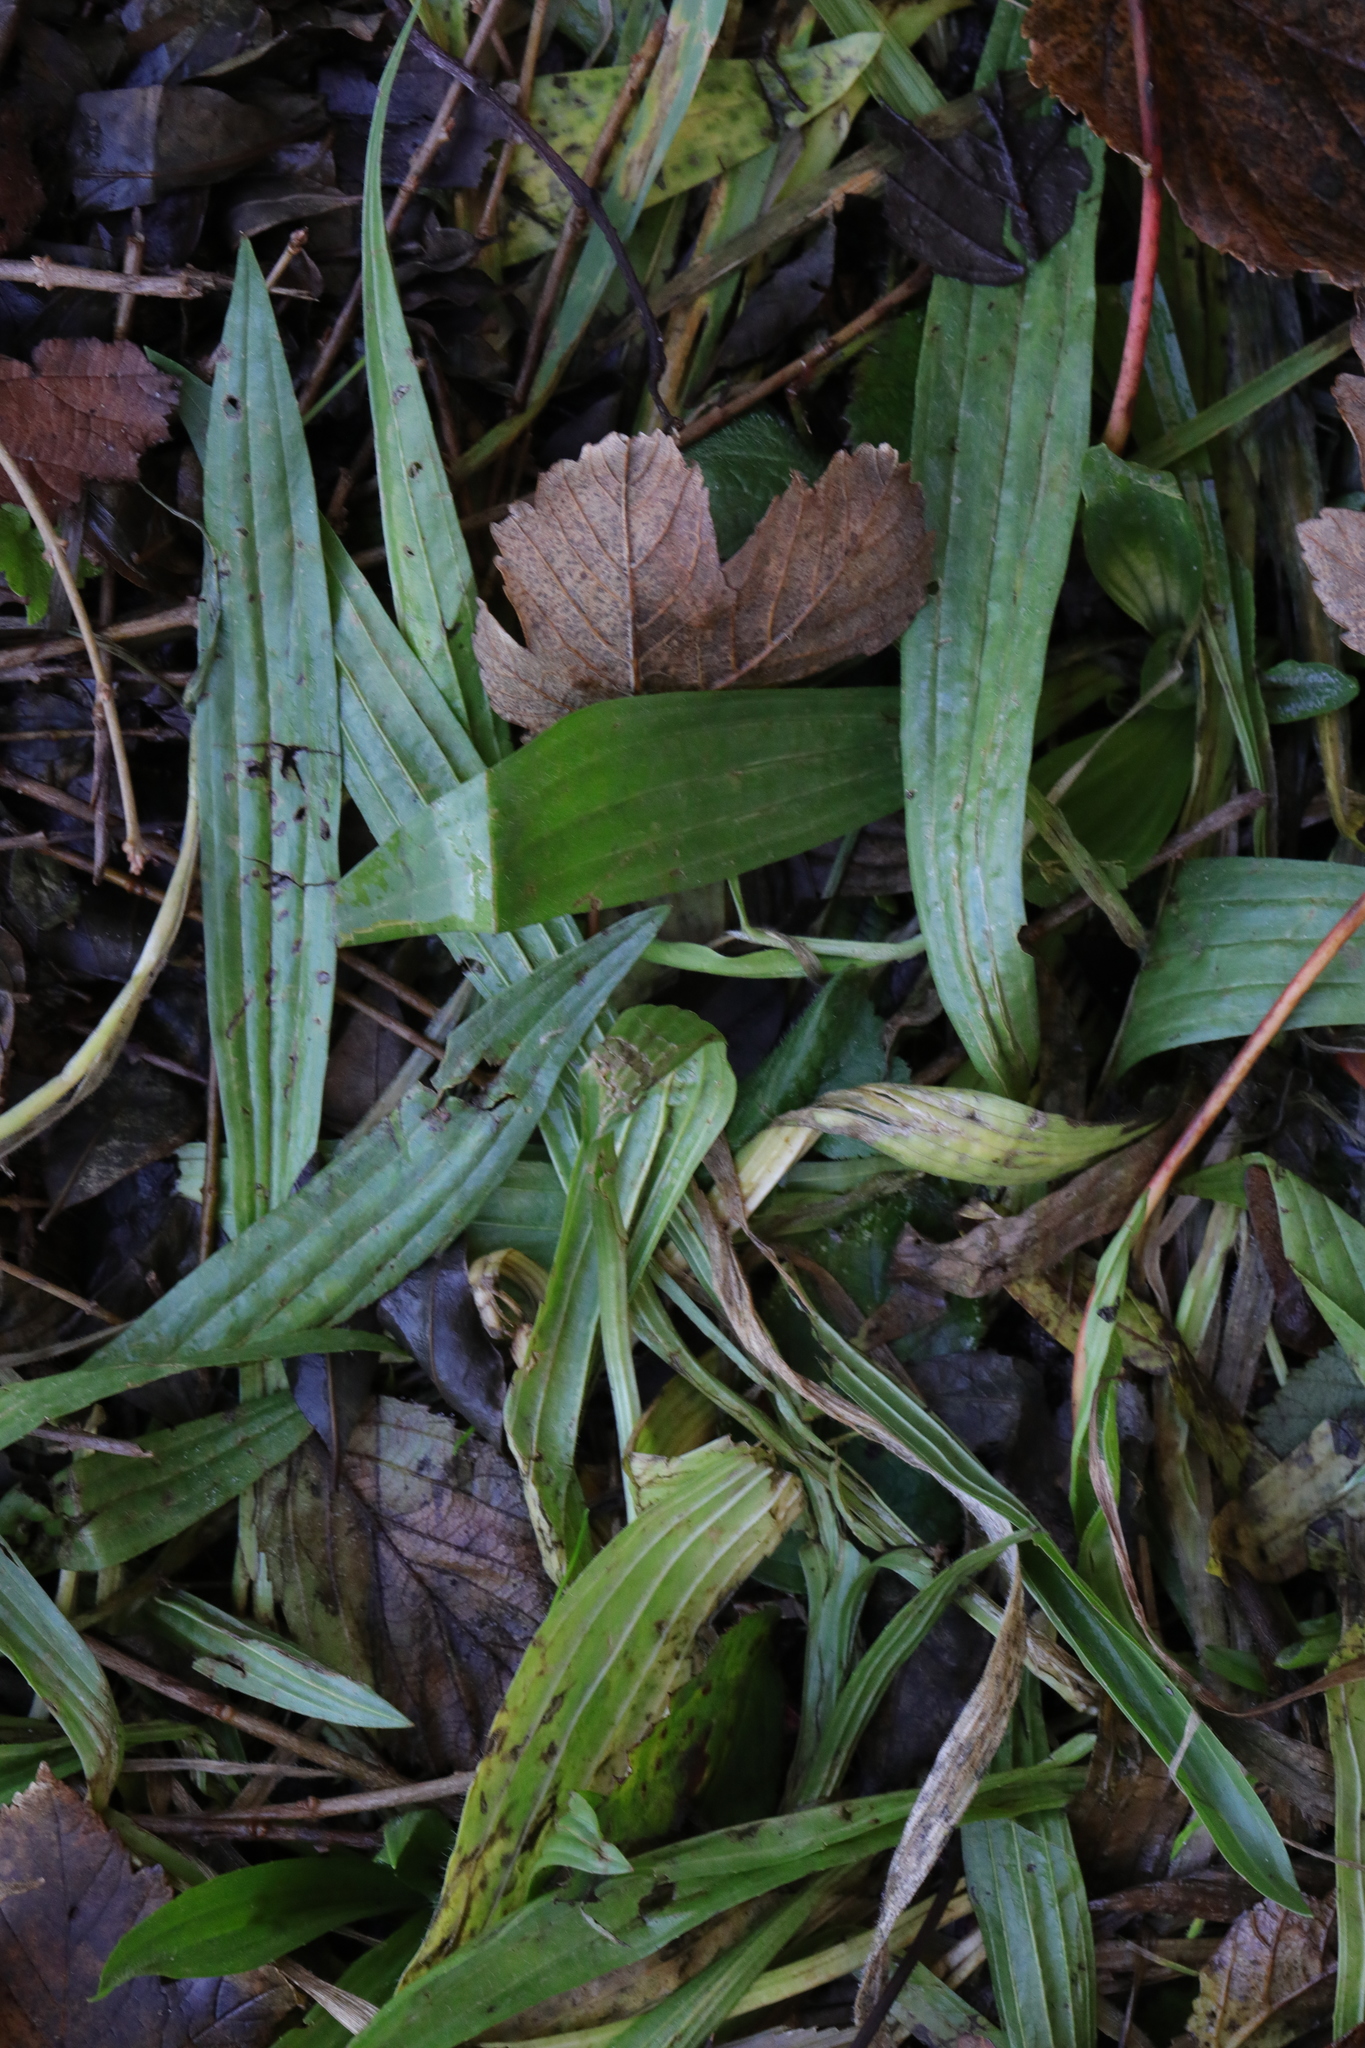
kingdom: Plantae
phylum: Tracheophyta
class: Magnoliopsida
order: Lamiales
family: Plantaginaceae
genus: Plantago
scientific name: Plantago lanceolata
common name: Ribwort plantain
